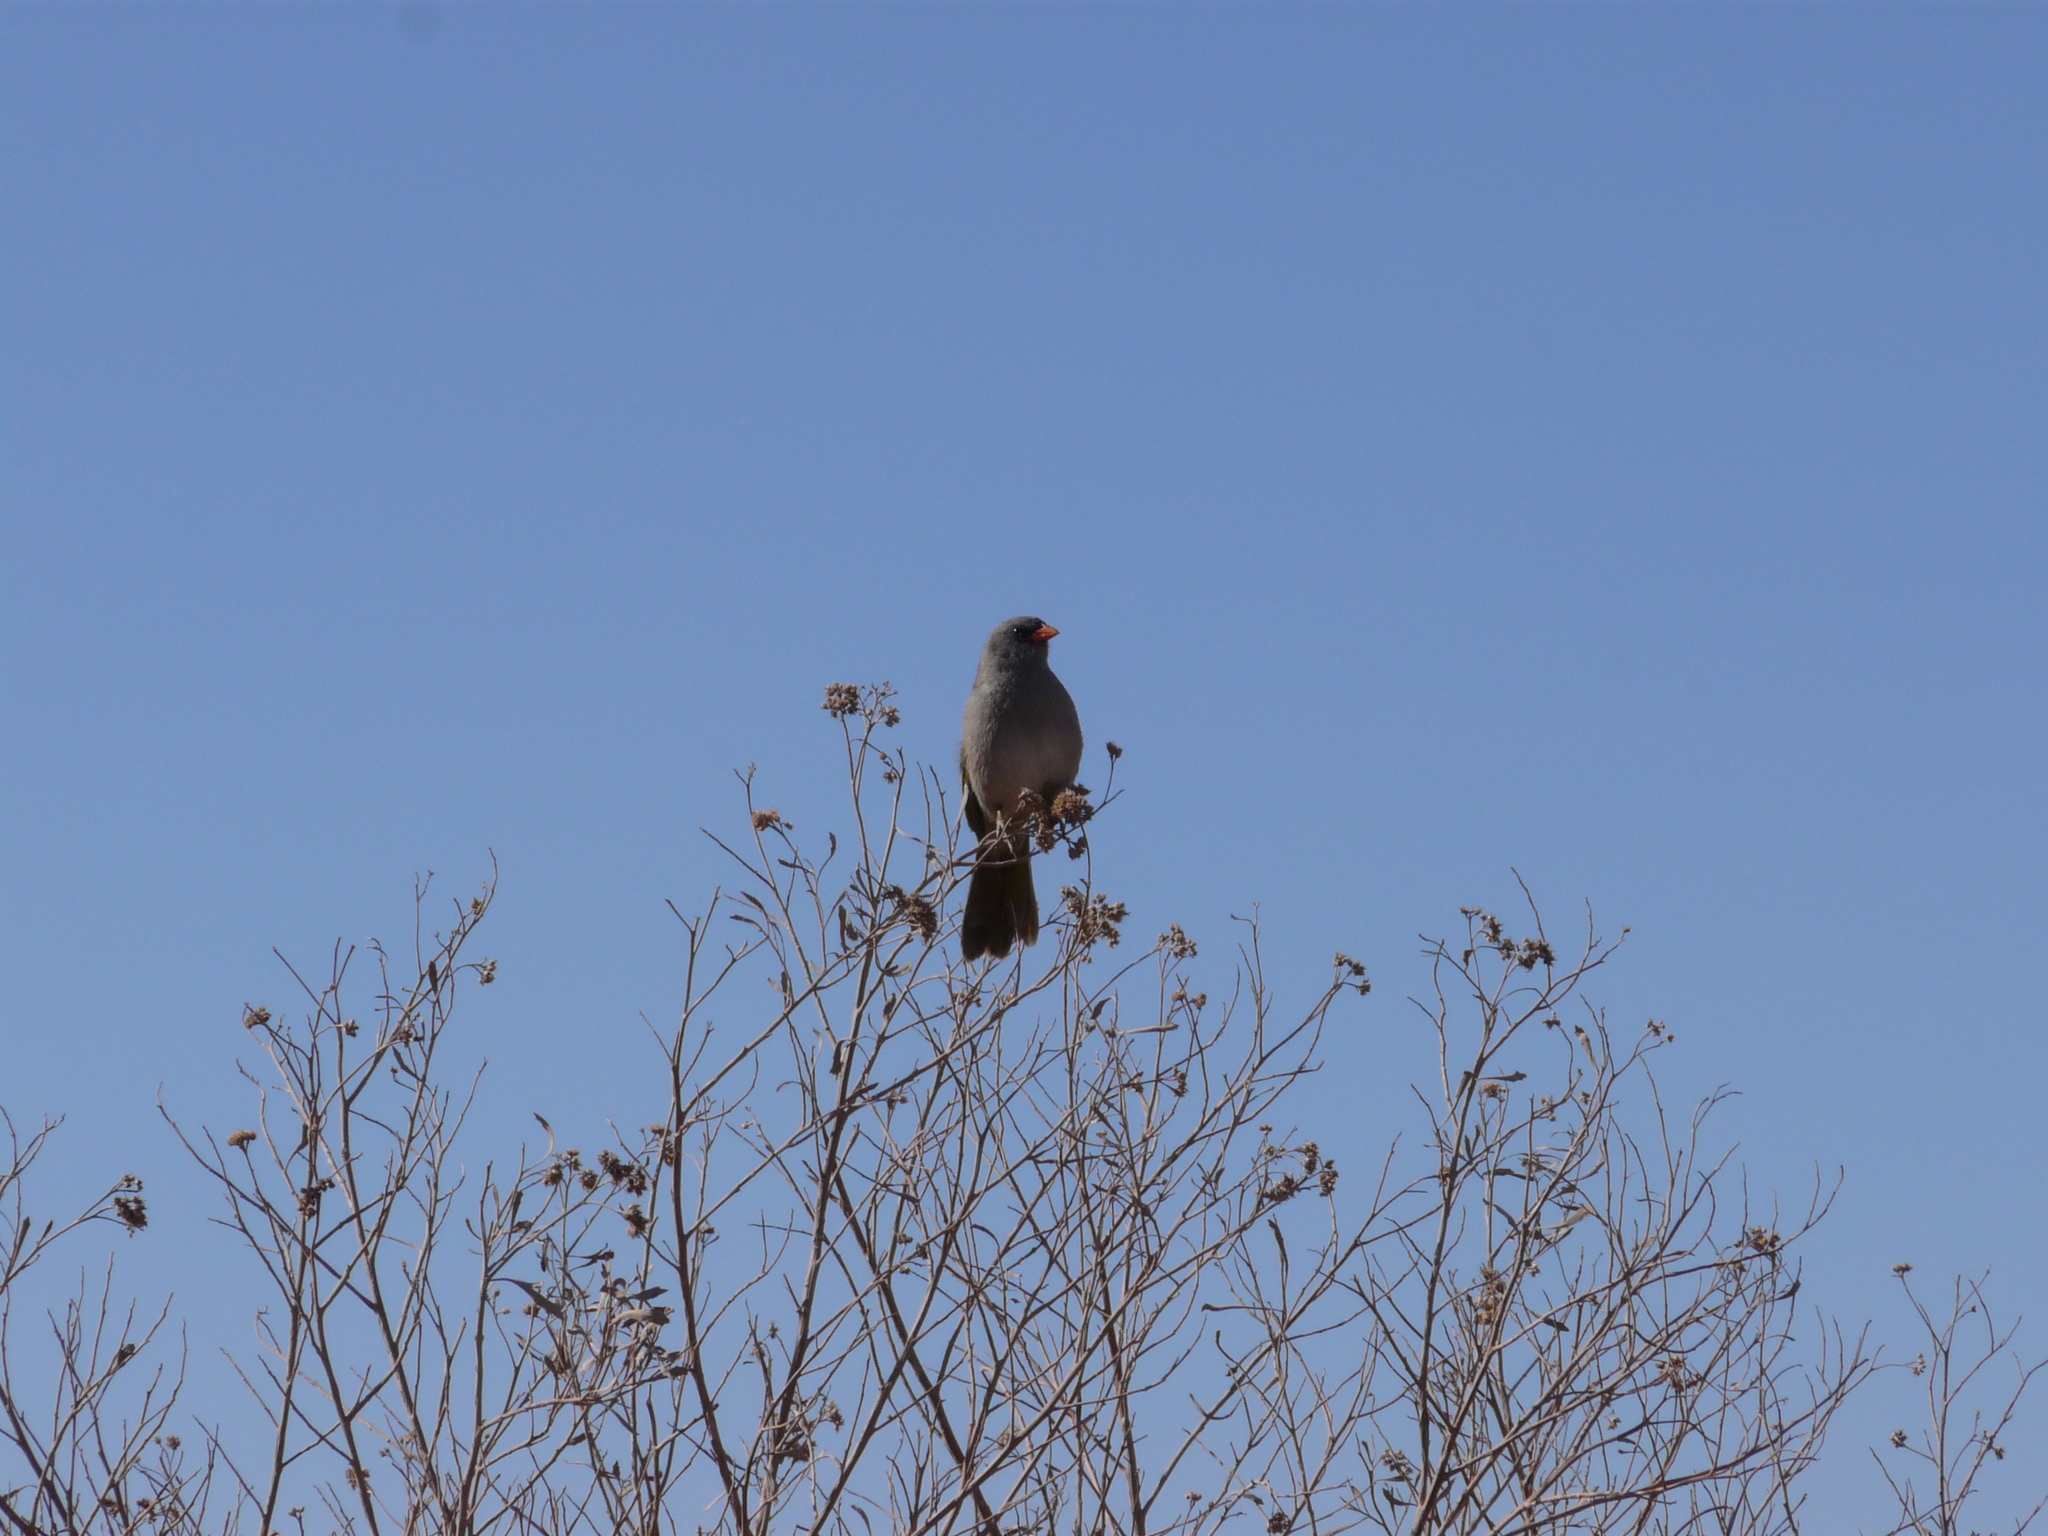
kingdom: Animalia
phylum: Chordata
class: Aves
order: Passeriformes
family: Thraupidae
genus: Embernagra
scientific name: Embernagra platensis
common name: Pampa finch
